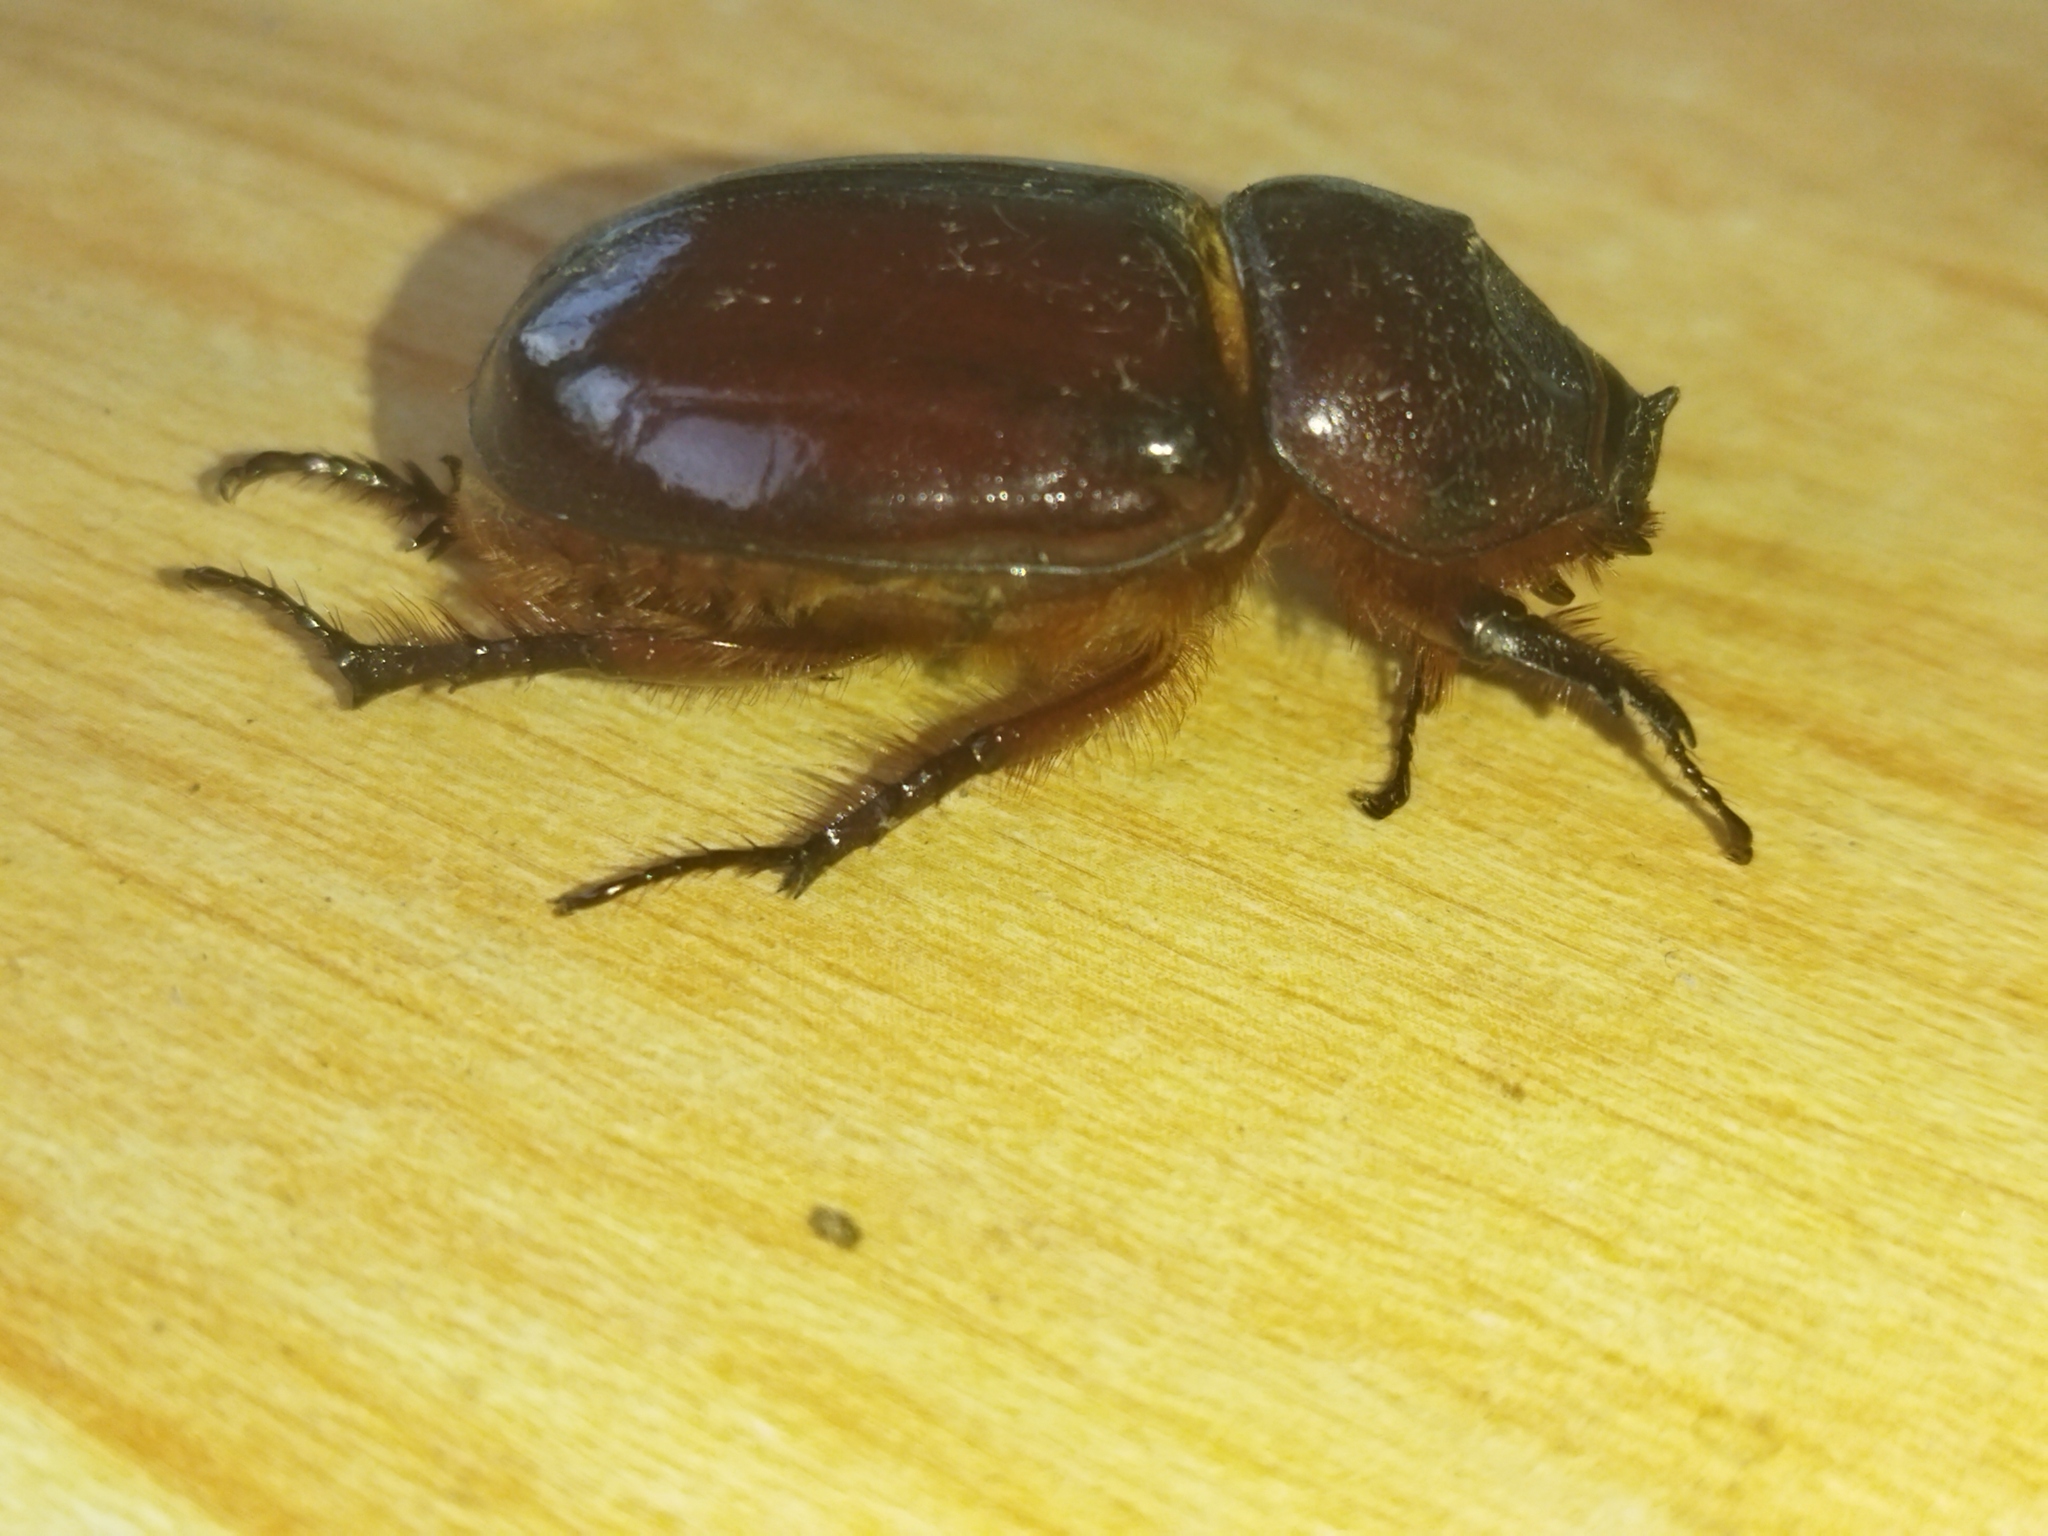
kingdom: Animalia
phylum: Arthropoda
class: Insecta
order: Coleoptera
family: Scarabaeidae
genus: Oryctes
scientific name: Oryctes nasicornis
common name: European rhinoceros beetle
